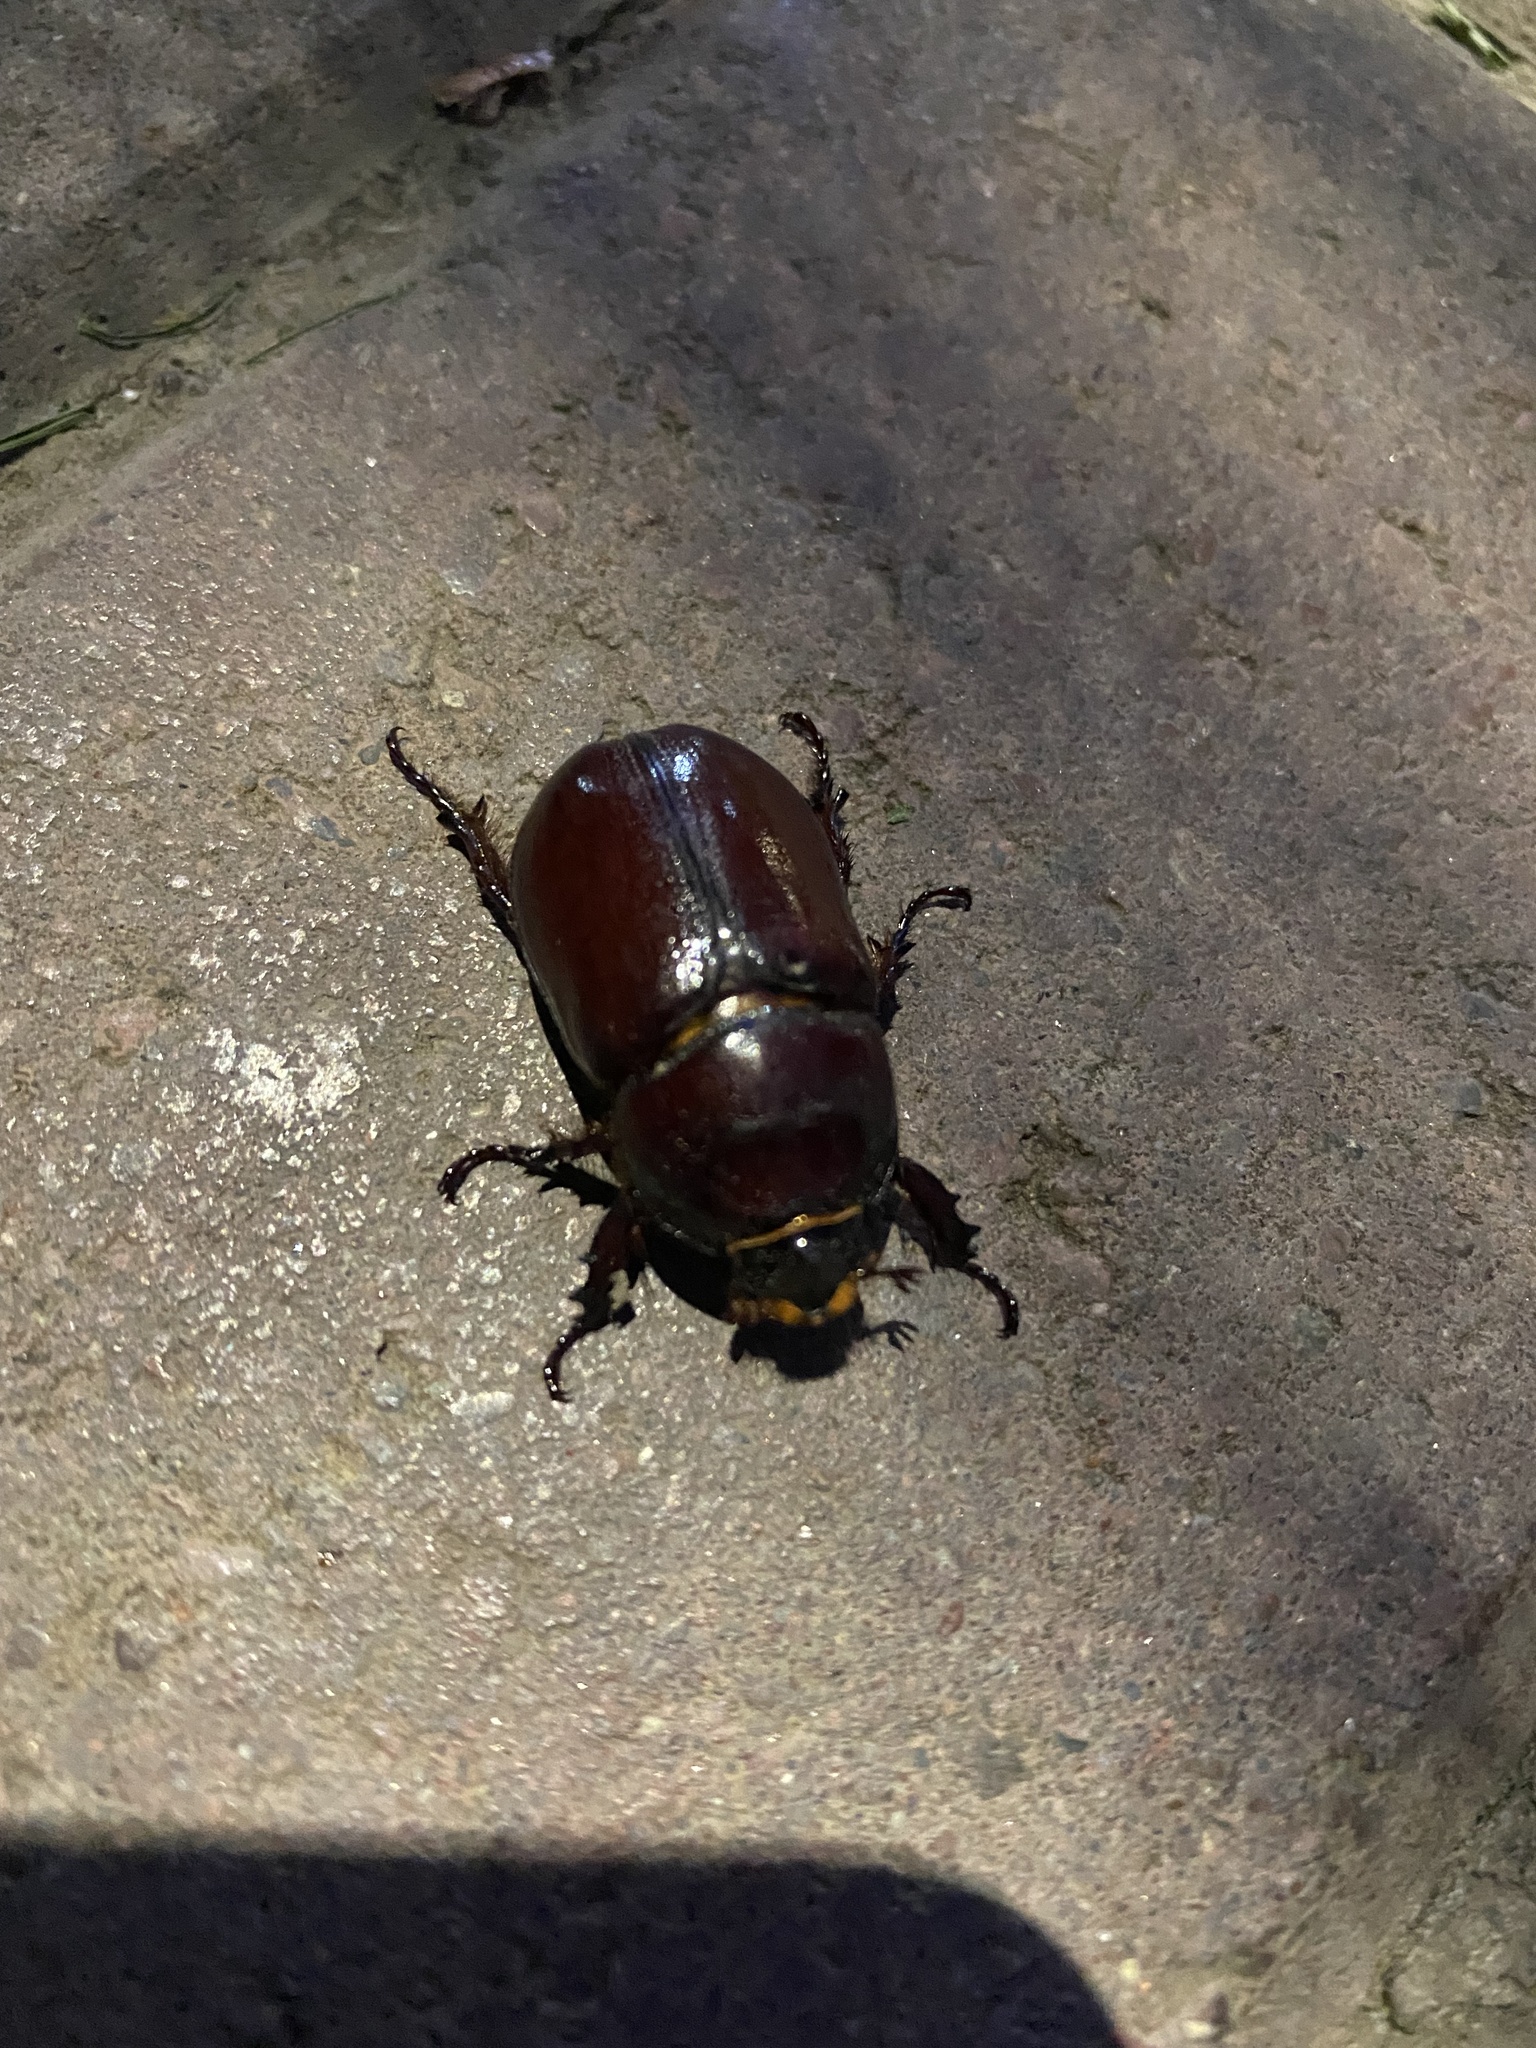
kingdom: Animalia
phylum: Arthropoda
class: Insecta
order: Coleoptera
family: Scarabaeidae
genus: Oryctes
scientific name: Oryctes nasicornis
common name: European rhinoceros beetle
